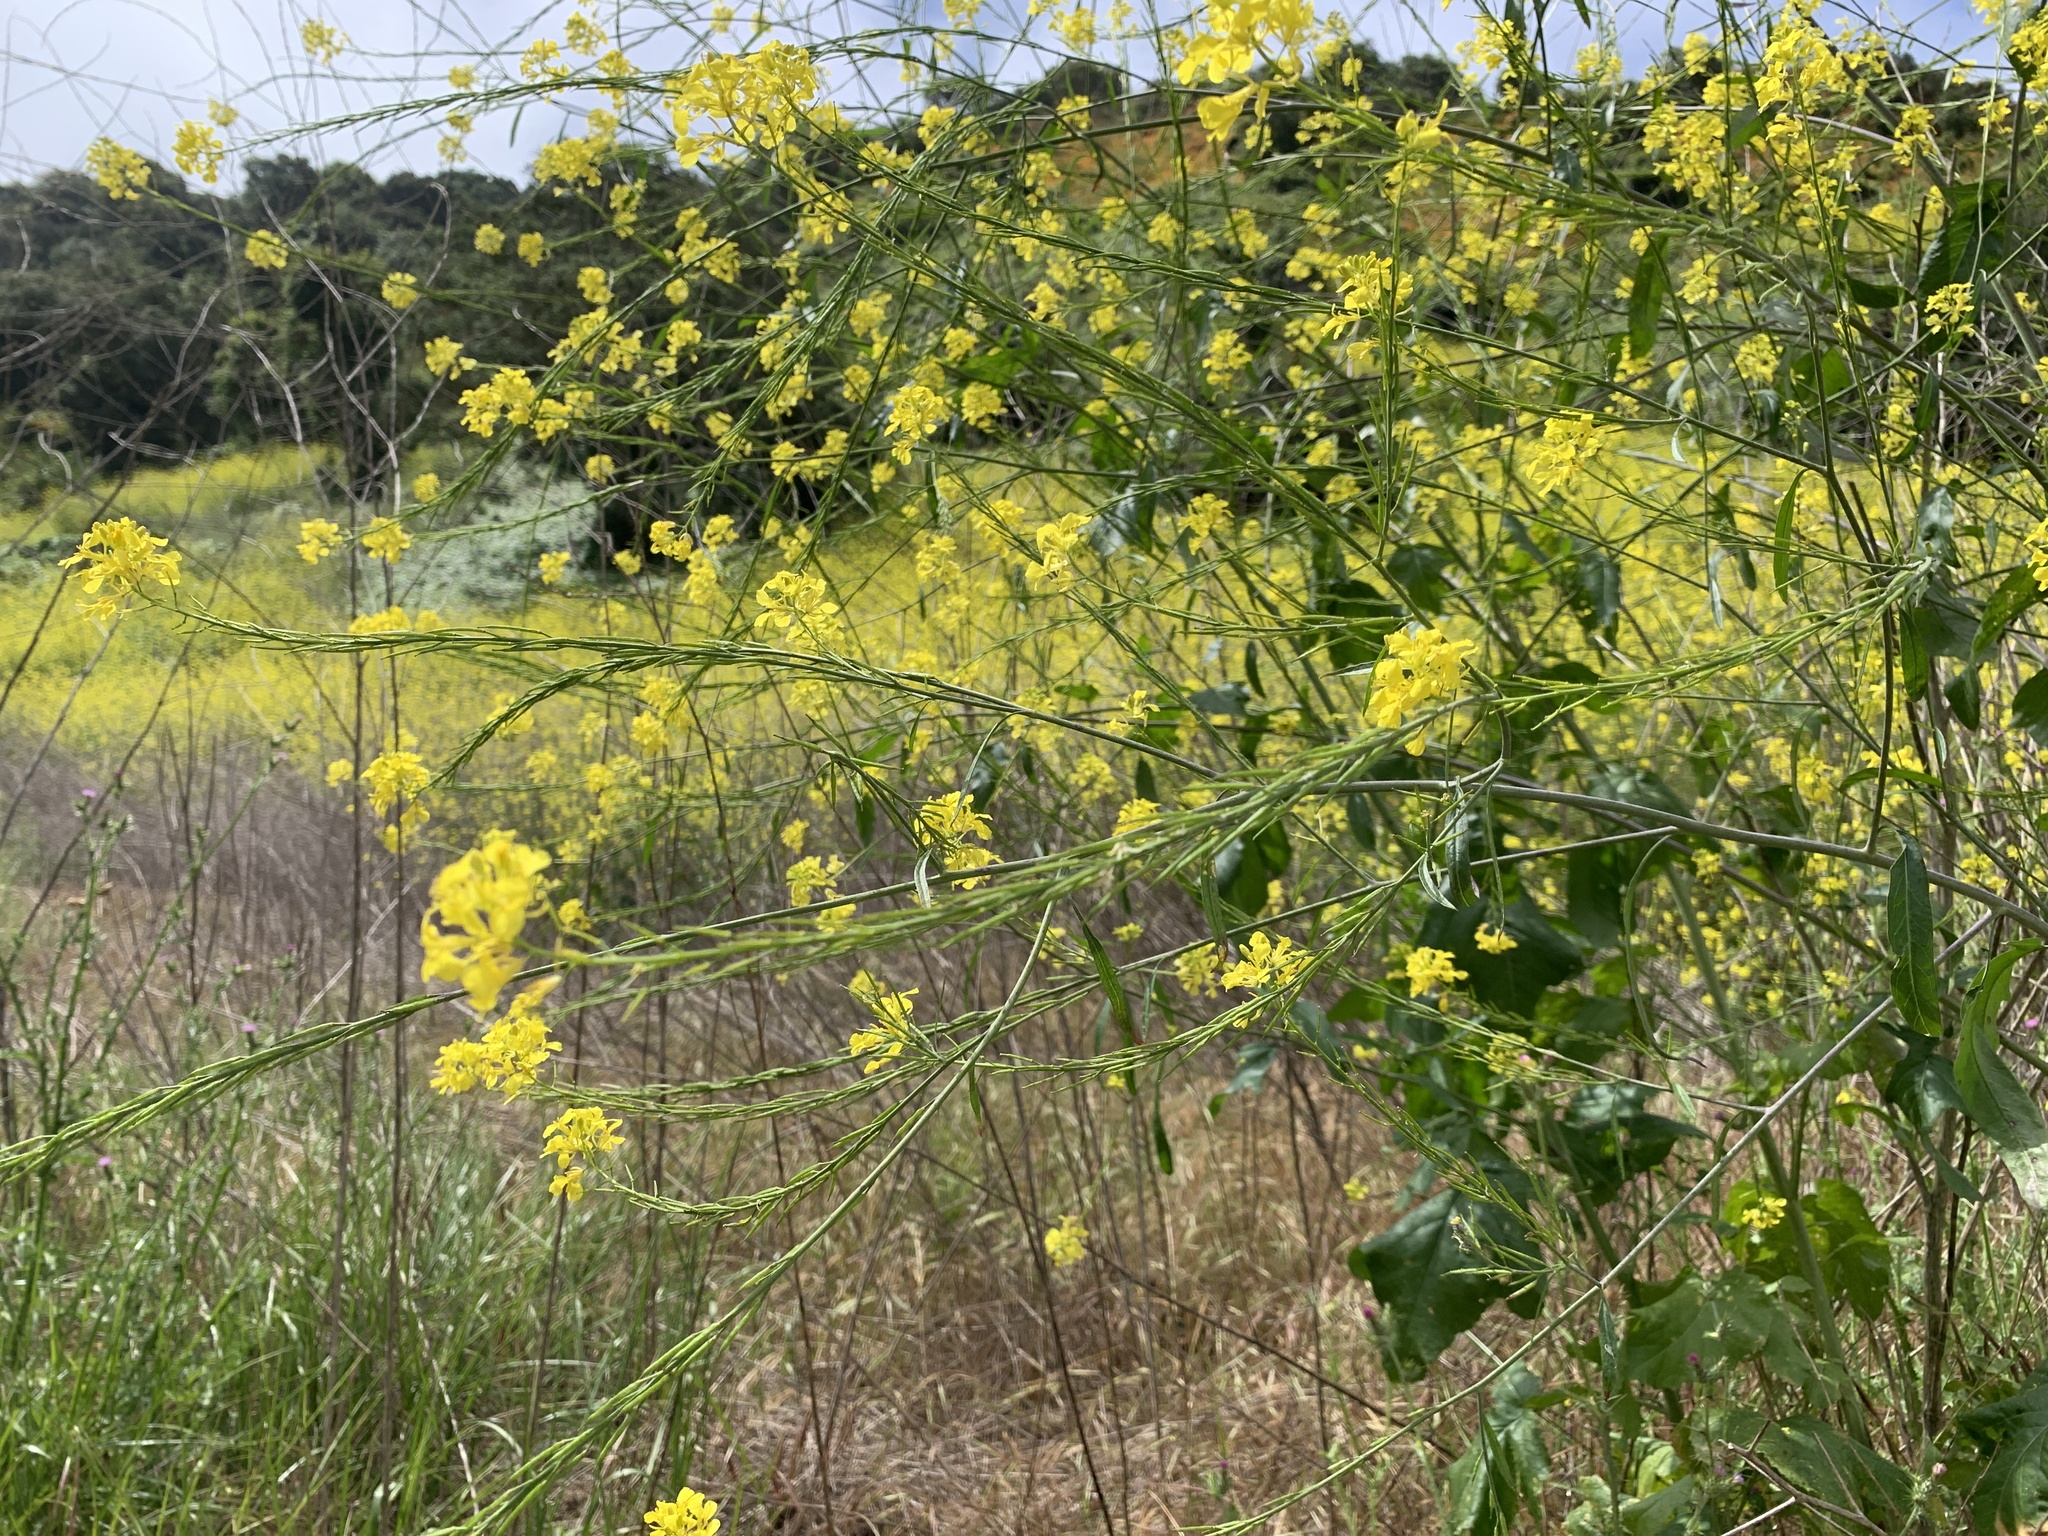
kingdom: Plantae
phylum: Tracheophyta
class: Magnoliopsida
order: Brassicales
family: Brassicaceae
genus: Brassica
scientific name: Brassica nigra
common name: Black mustard
